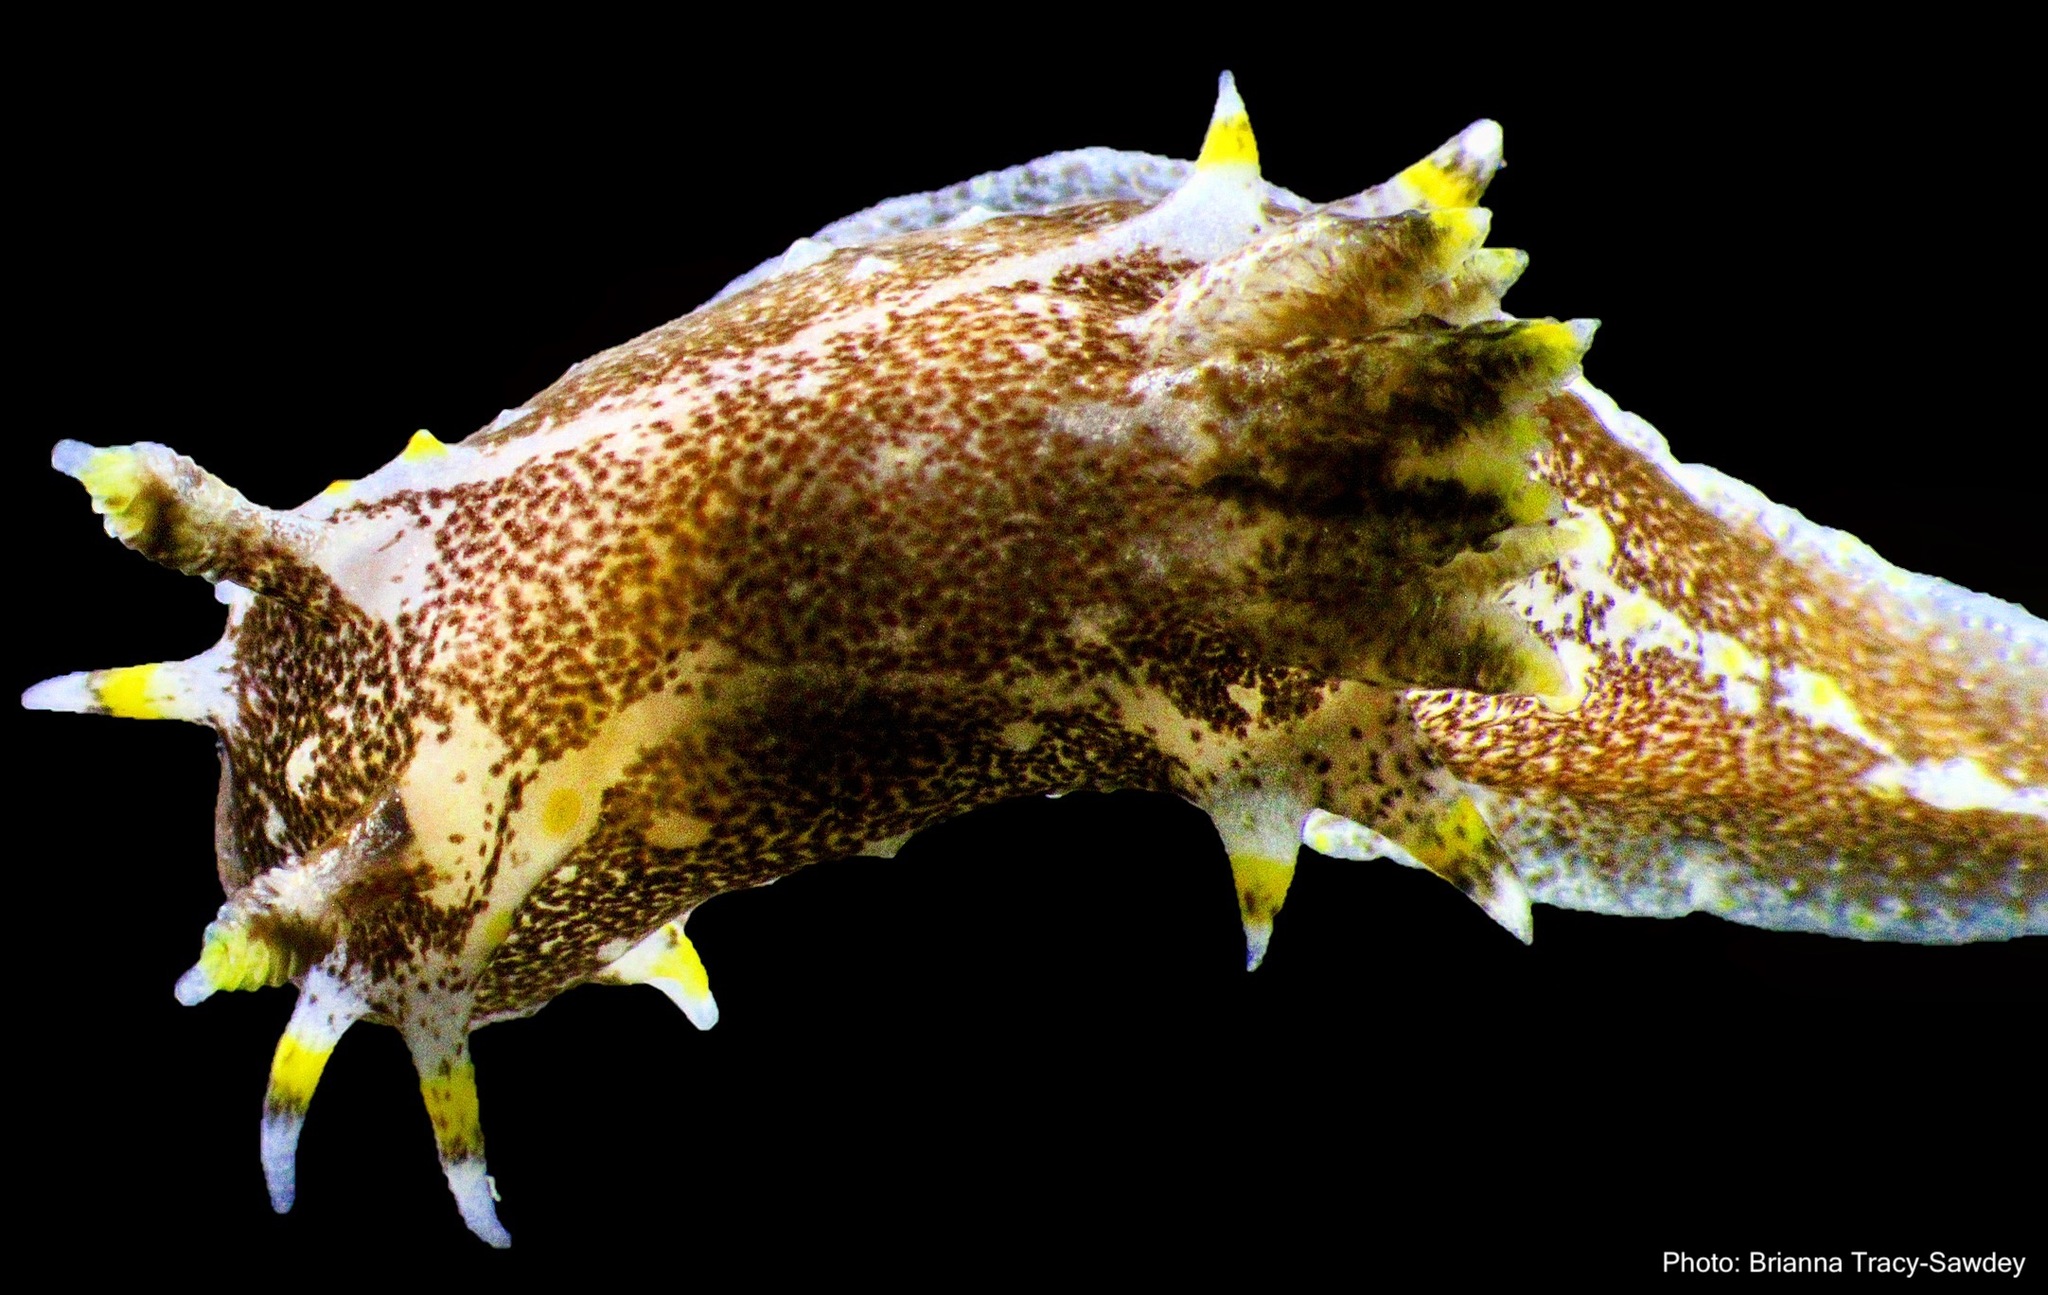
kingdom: Animalia
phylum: Mollusca
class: Gastropoda
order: Nudibranchia
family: Polyceridae
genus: Polycera
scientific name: Polycera hedgpethi
